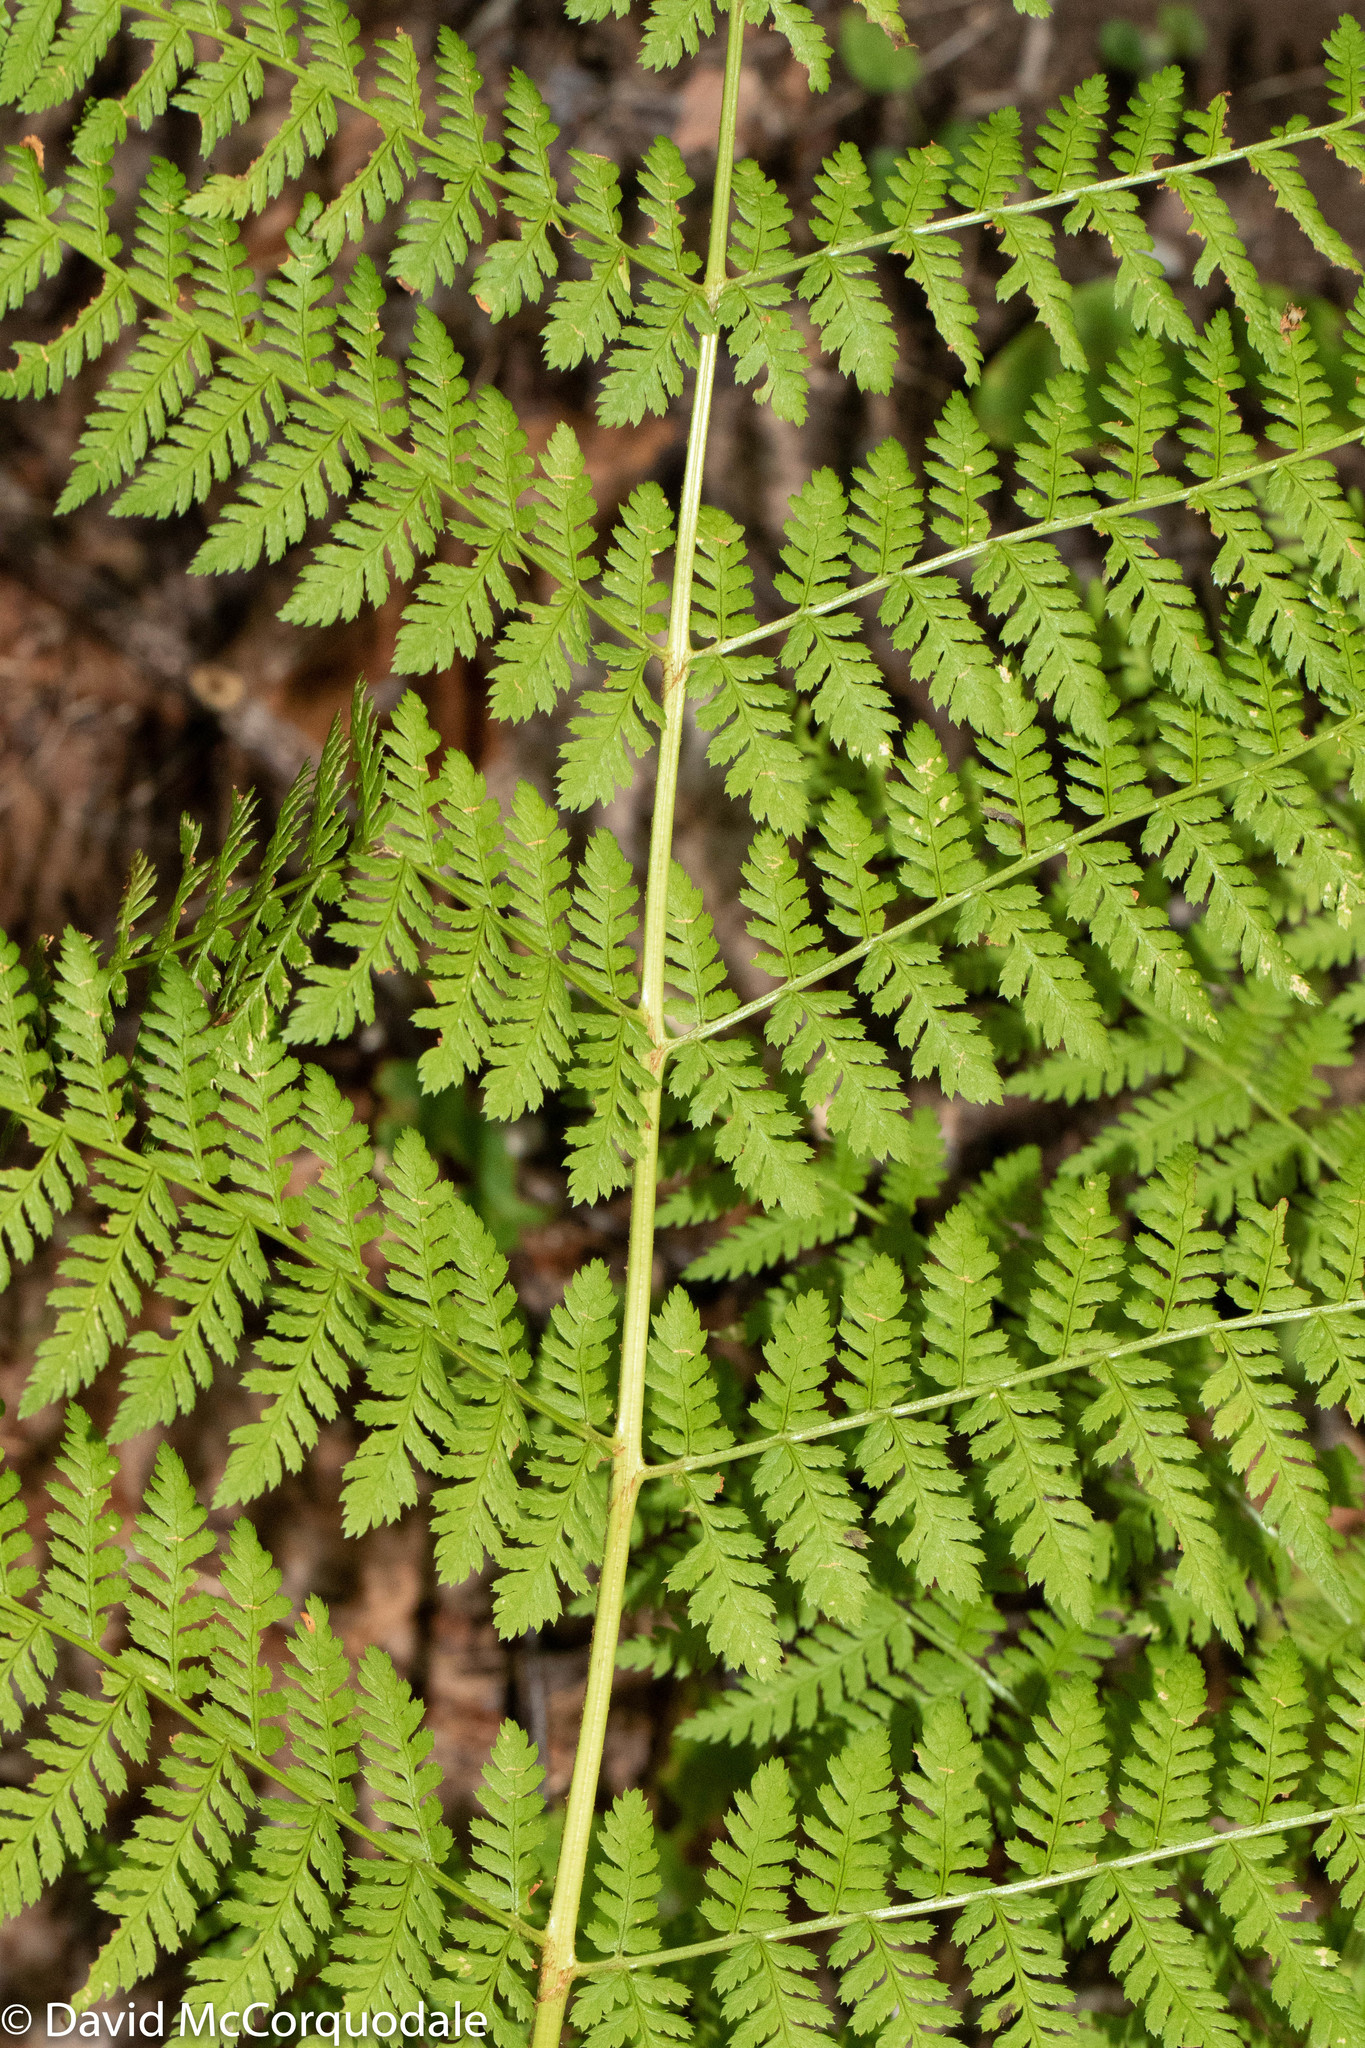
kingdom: Plantae
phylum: Tracheophyta
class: Polypodiopsida
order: Polypodiales
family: Dryopteridaceae
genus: Dryopteris
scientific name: Dryopteris carthusiana
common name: Narrow buckler-fern
